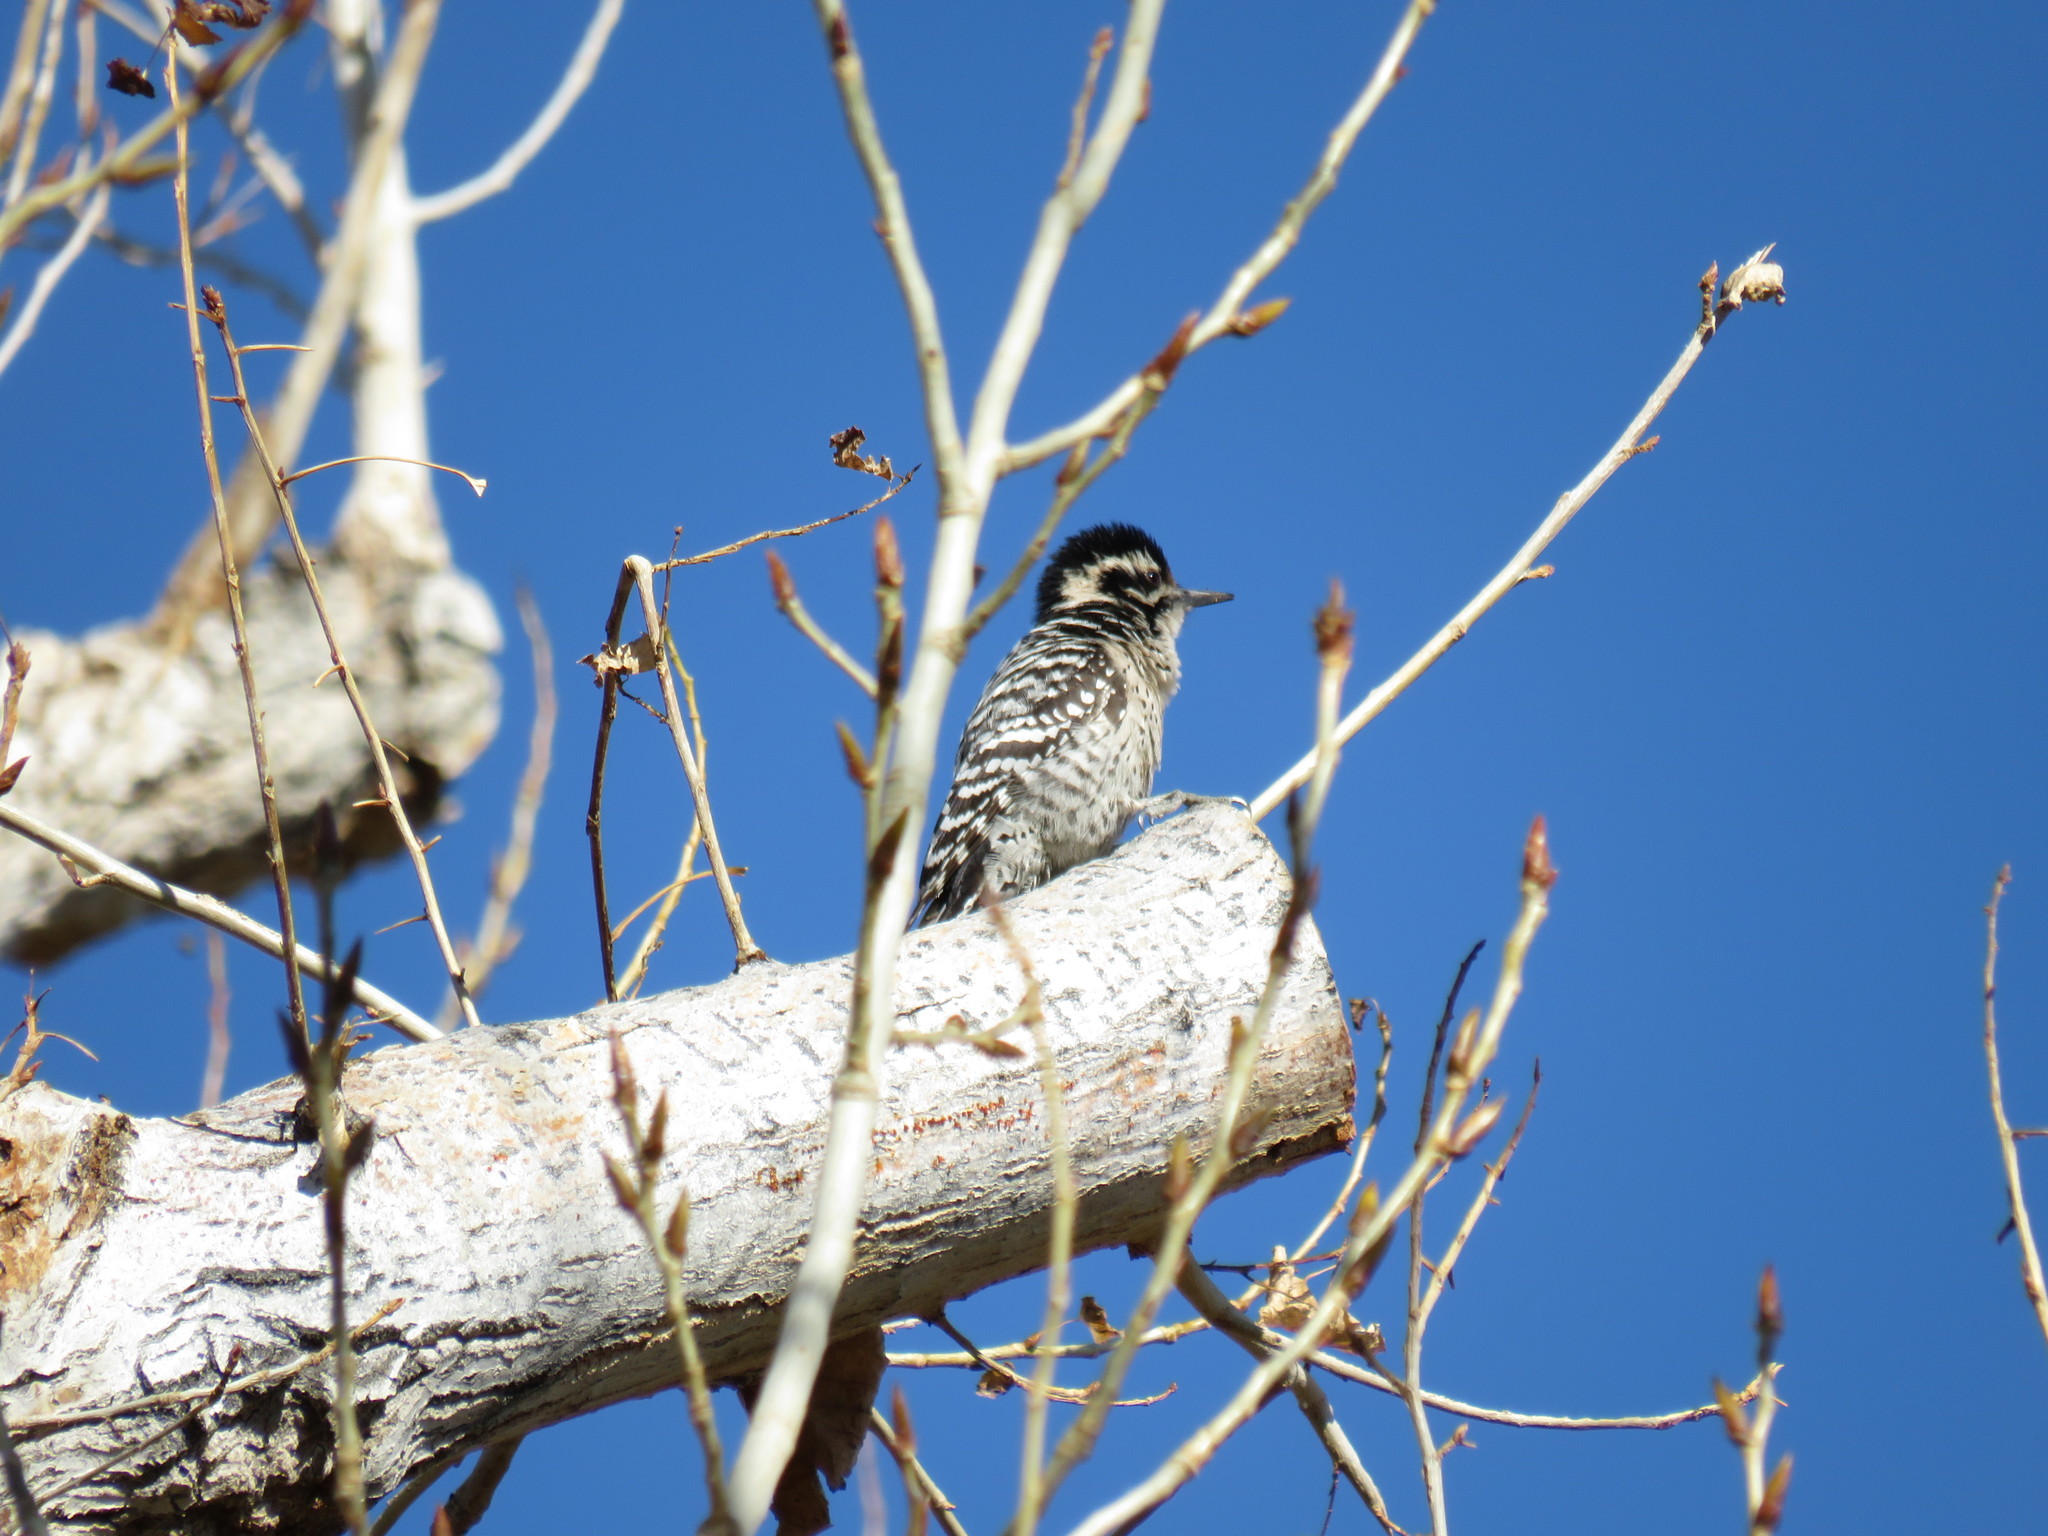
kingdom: Animalia
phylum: Chordata
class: Aves
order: Piciformes
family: Picidae
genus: Dryobates
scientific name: Dryobates scalaris
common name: Ladder-backed woodpecker
